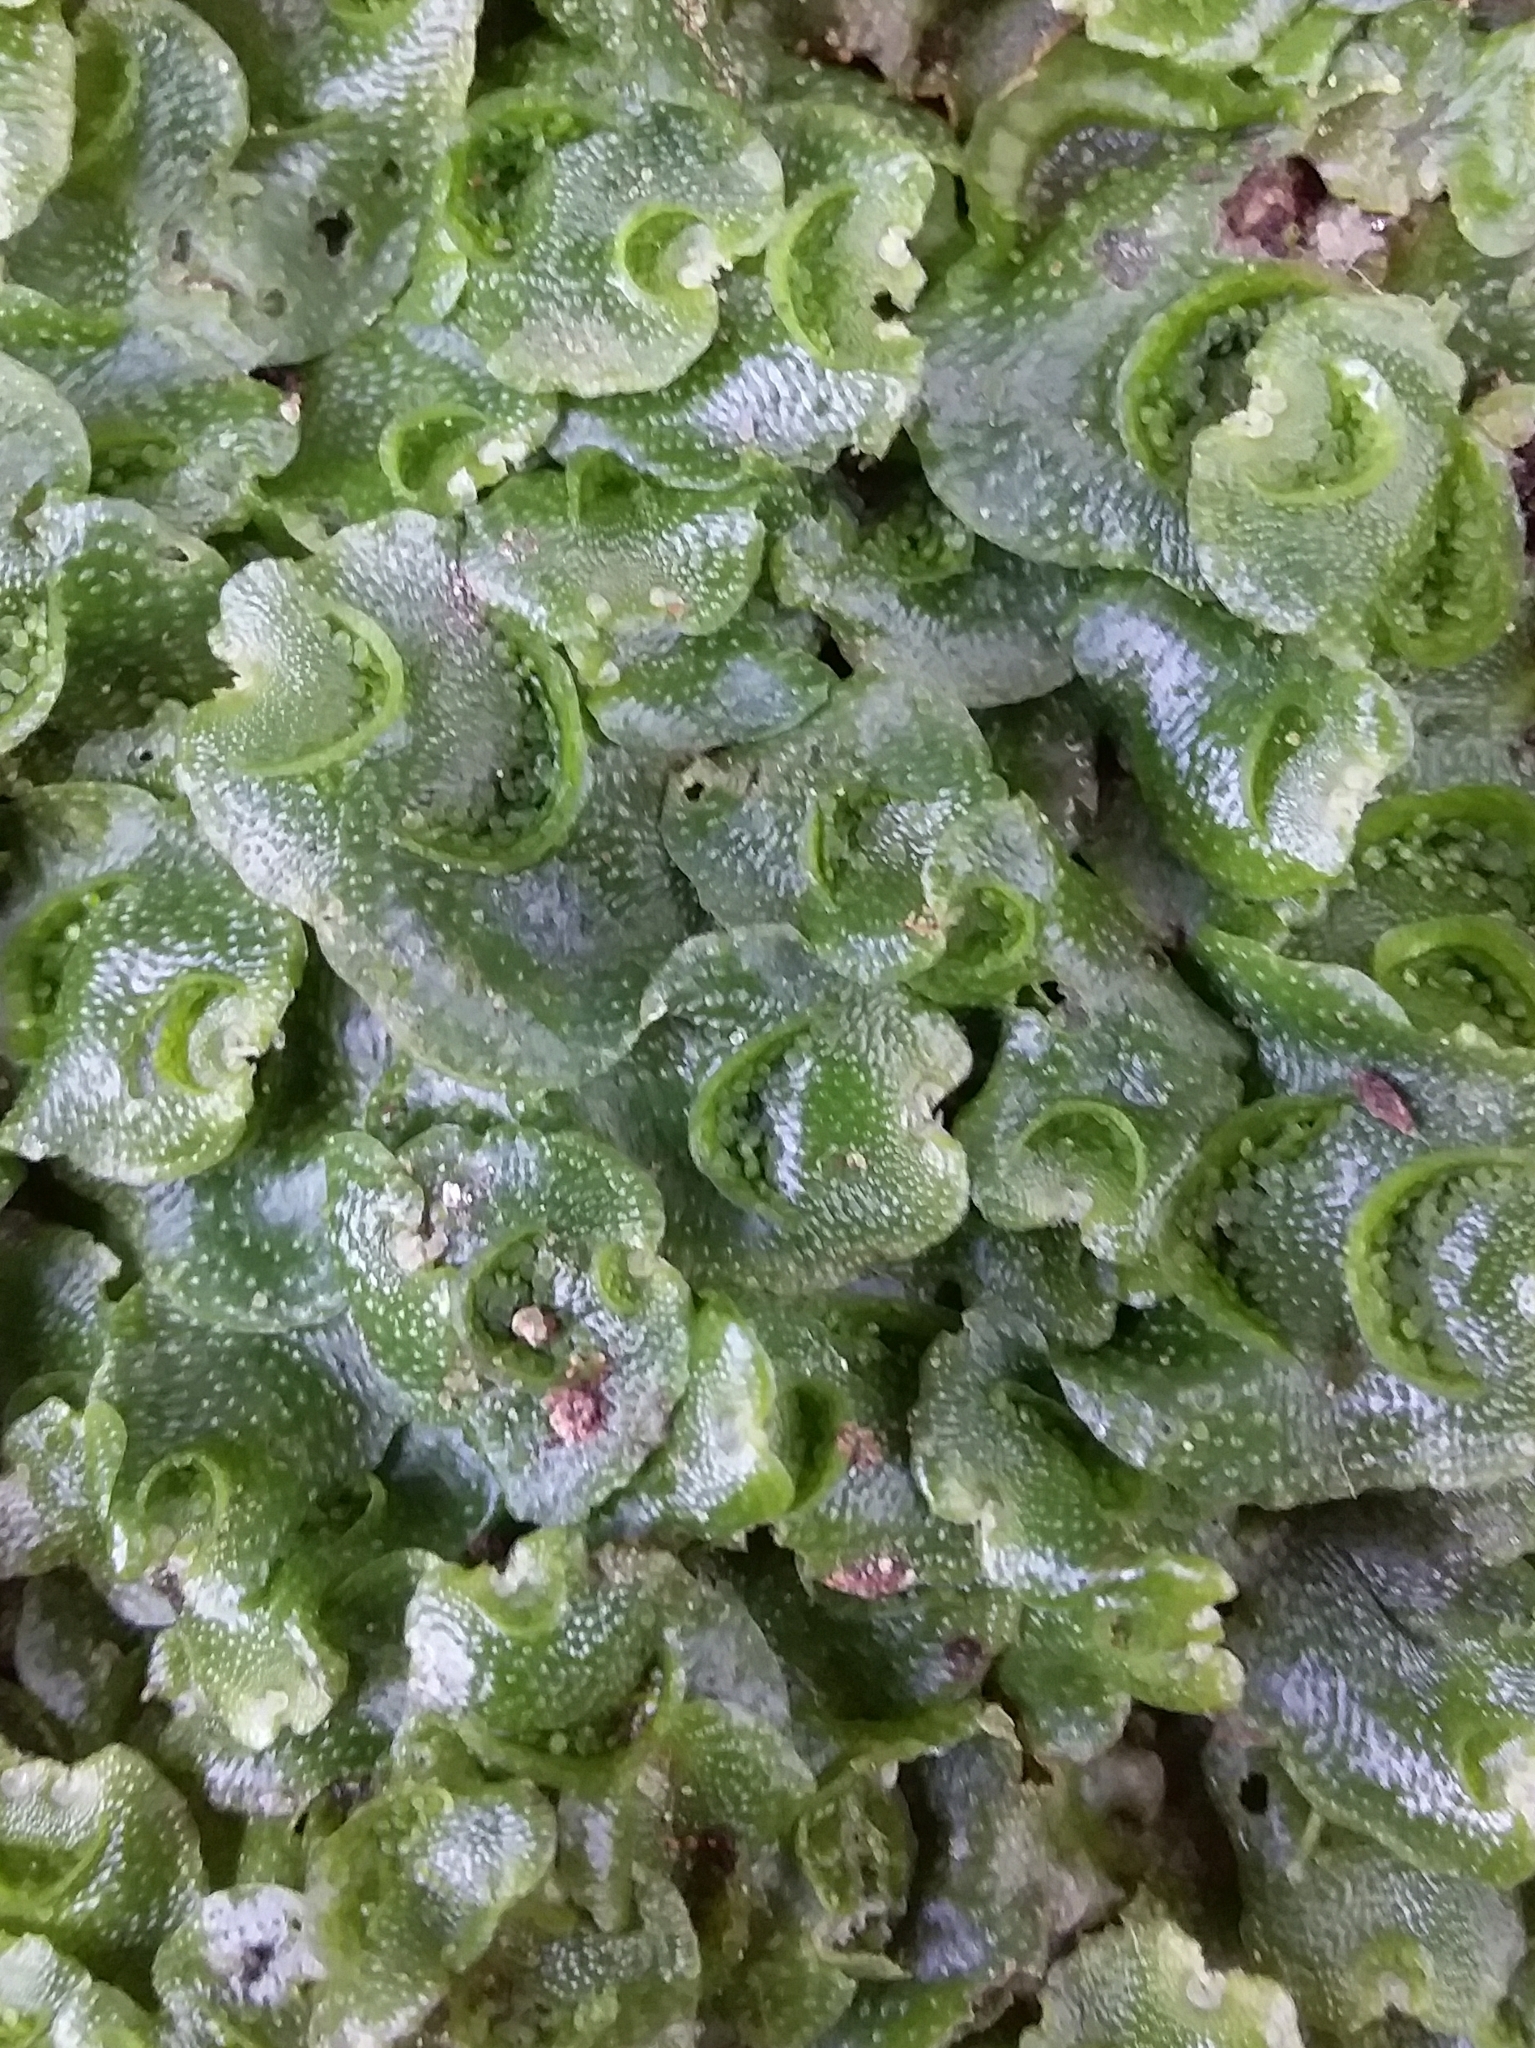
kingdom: Plantae
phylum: Marchantiophyta
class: Marchantiopsida
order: Lunulariales
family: Lunulariaceae
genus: Lunularia
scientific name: Lunularia cruciata
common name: Crescent-cup liverwort
